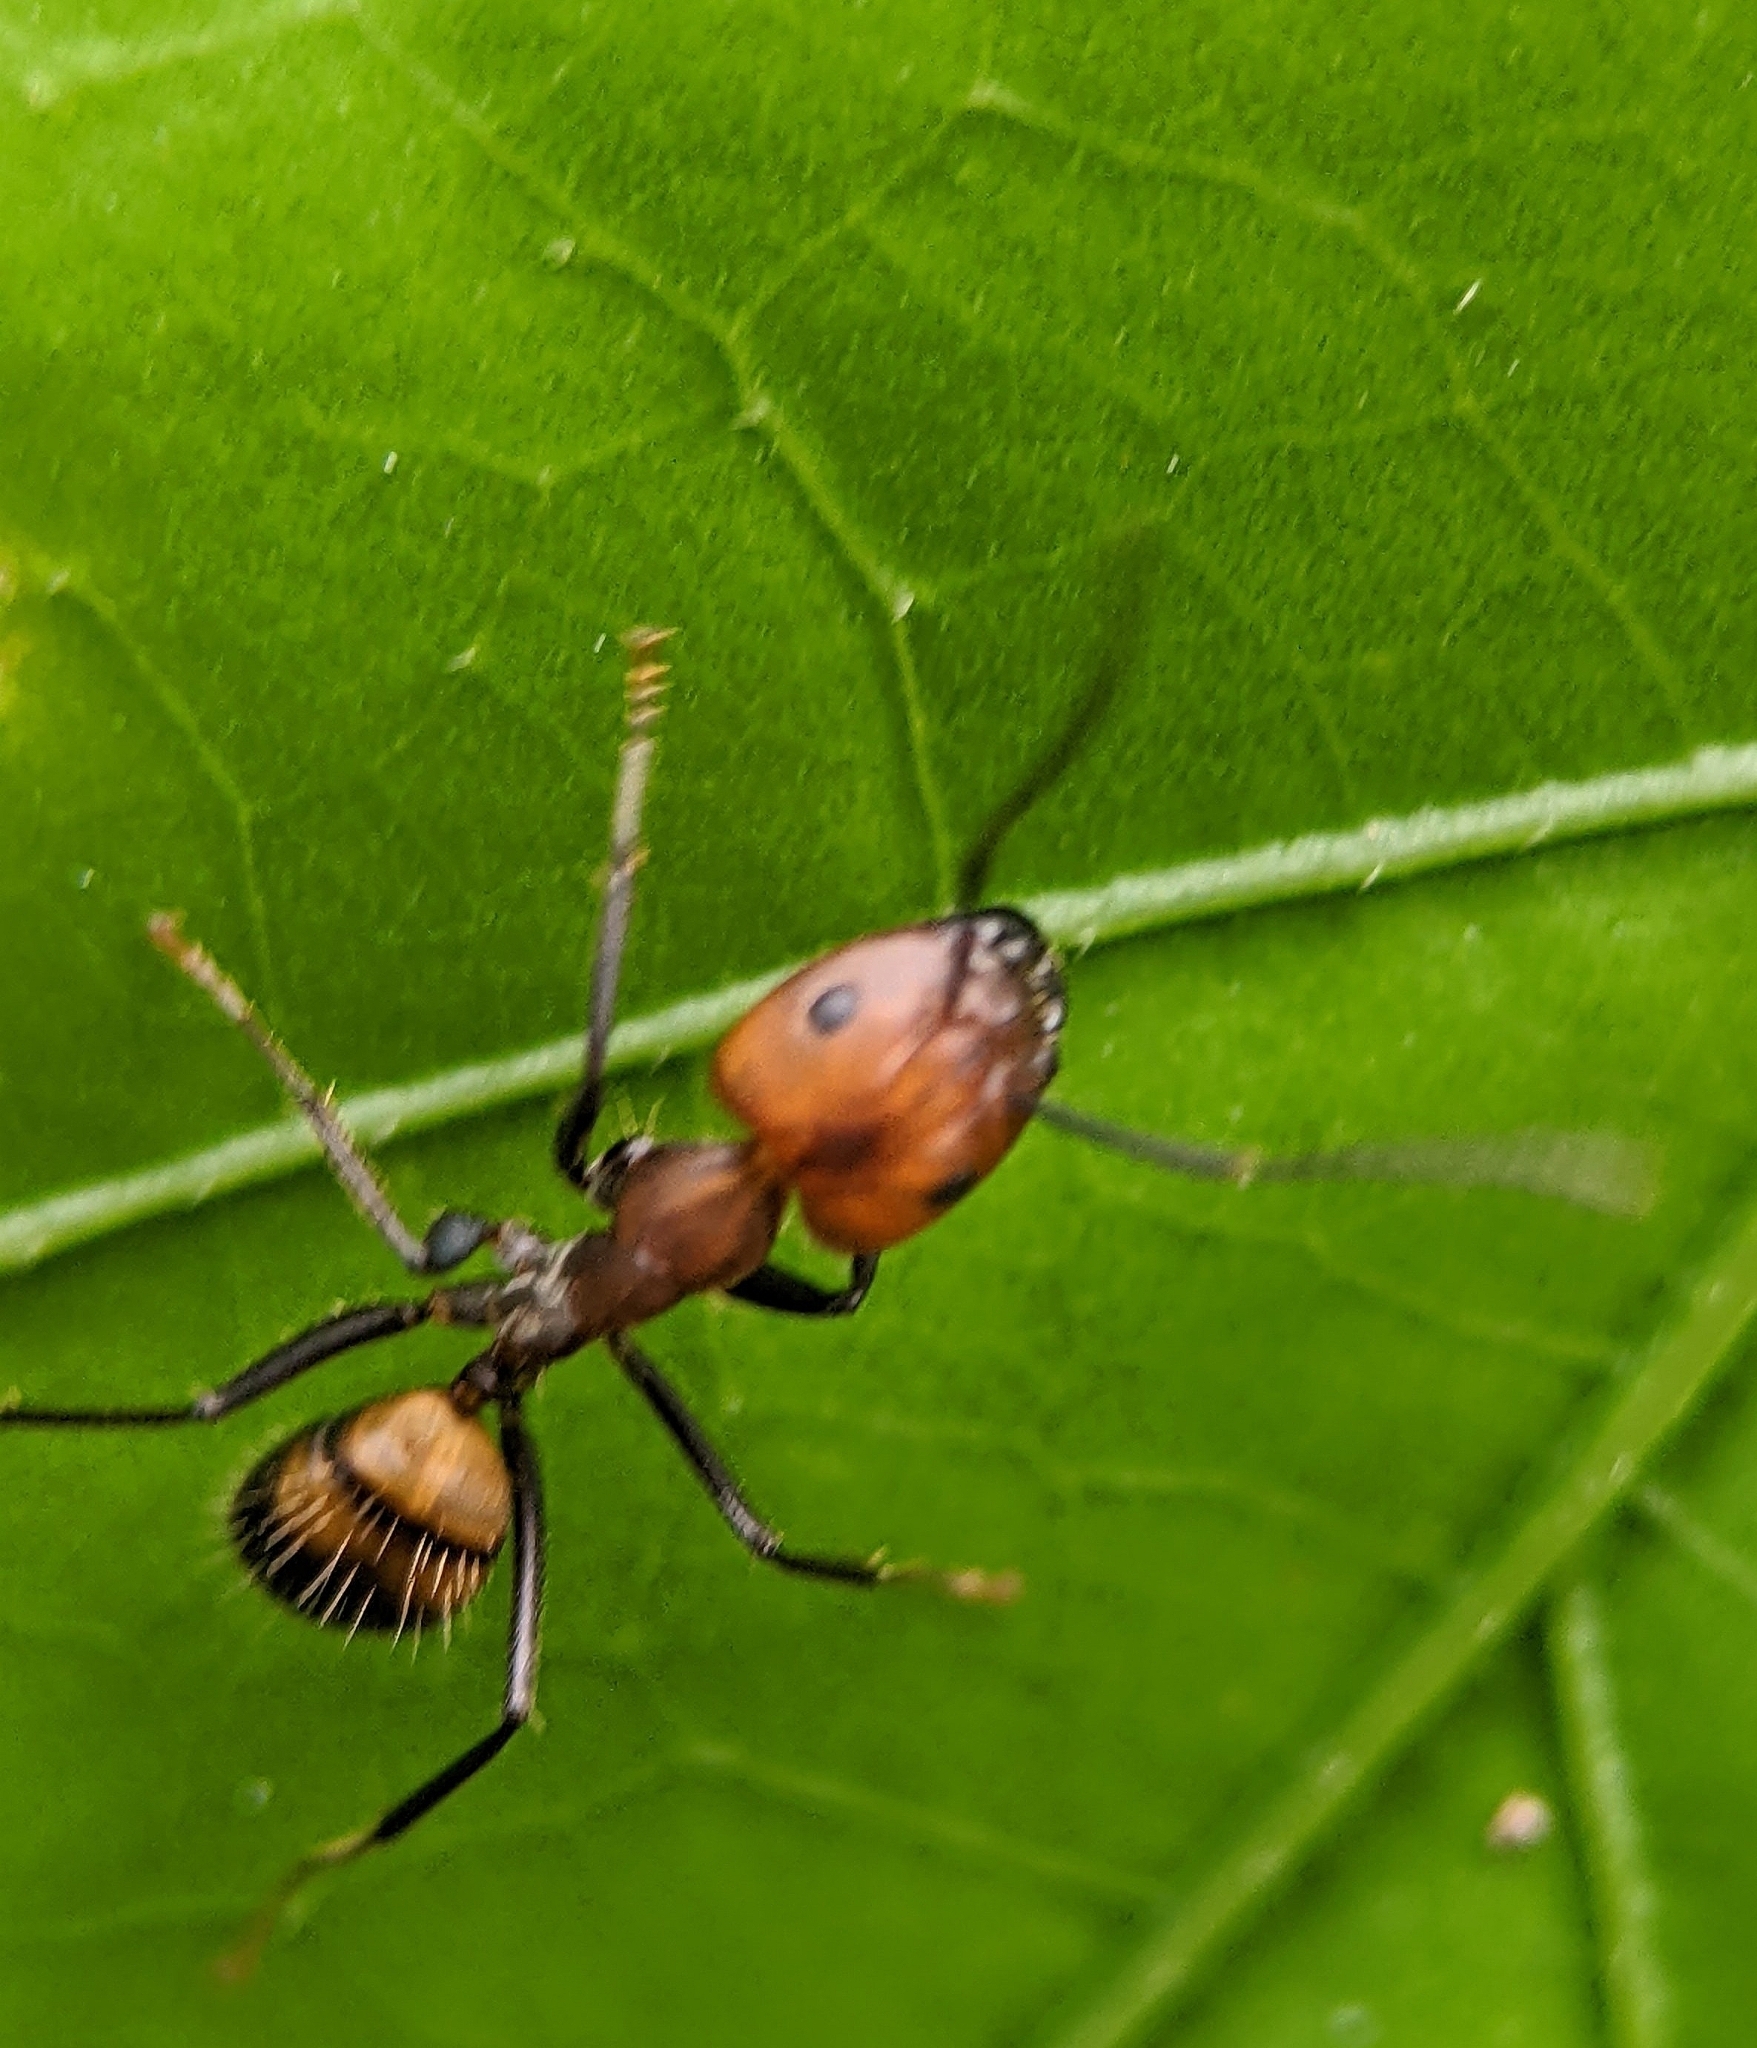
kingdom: Animalia
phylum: Arthropoda
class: Insecta
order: Hymenoptera
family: Formicidae
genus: Camponotus
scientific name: Camponotus nicobarensis
